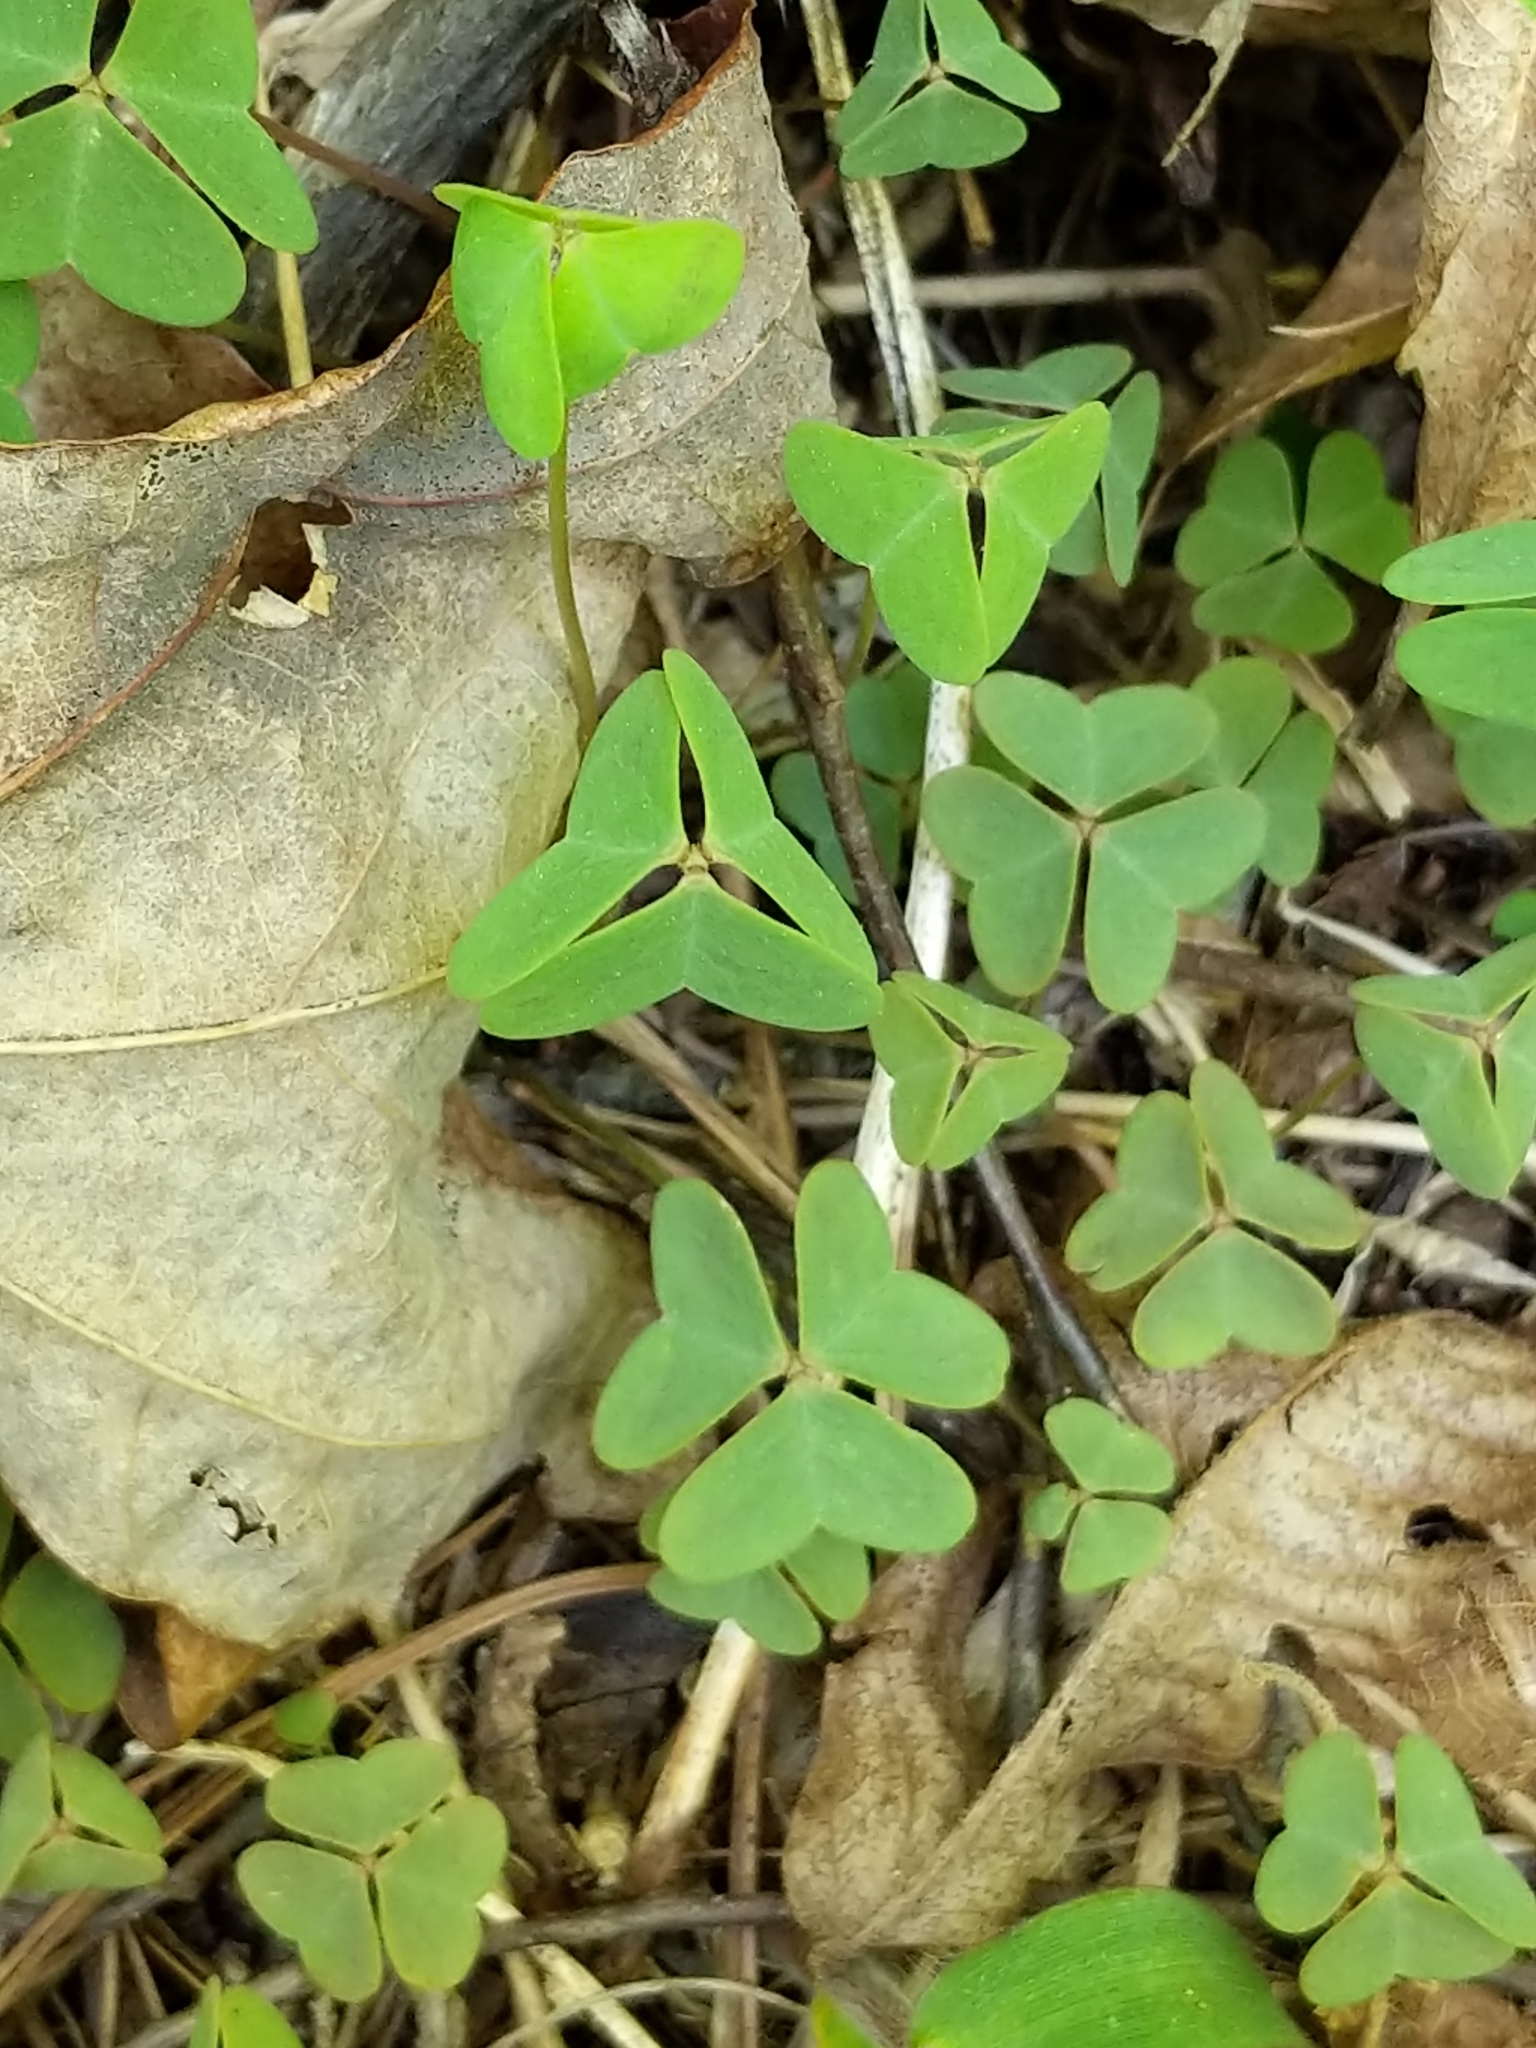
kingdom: Plantae
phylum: Tracheophyta
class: Magnoliopsida
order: Oxalidales
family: Oxalidaceae
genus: Oxalis
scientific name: Oxalis violacea
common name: Violet wood-sorrel
